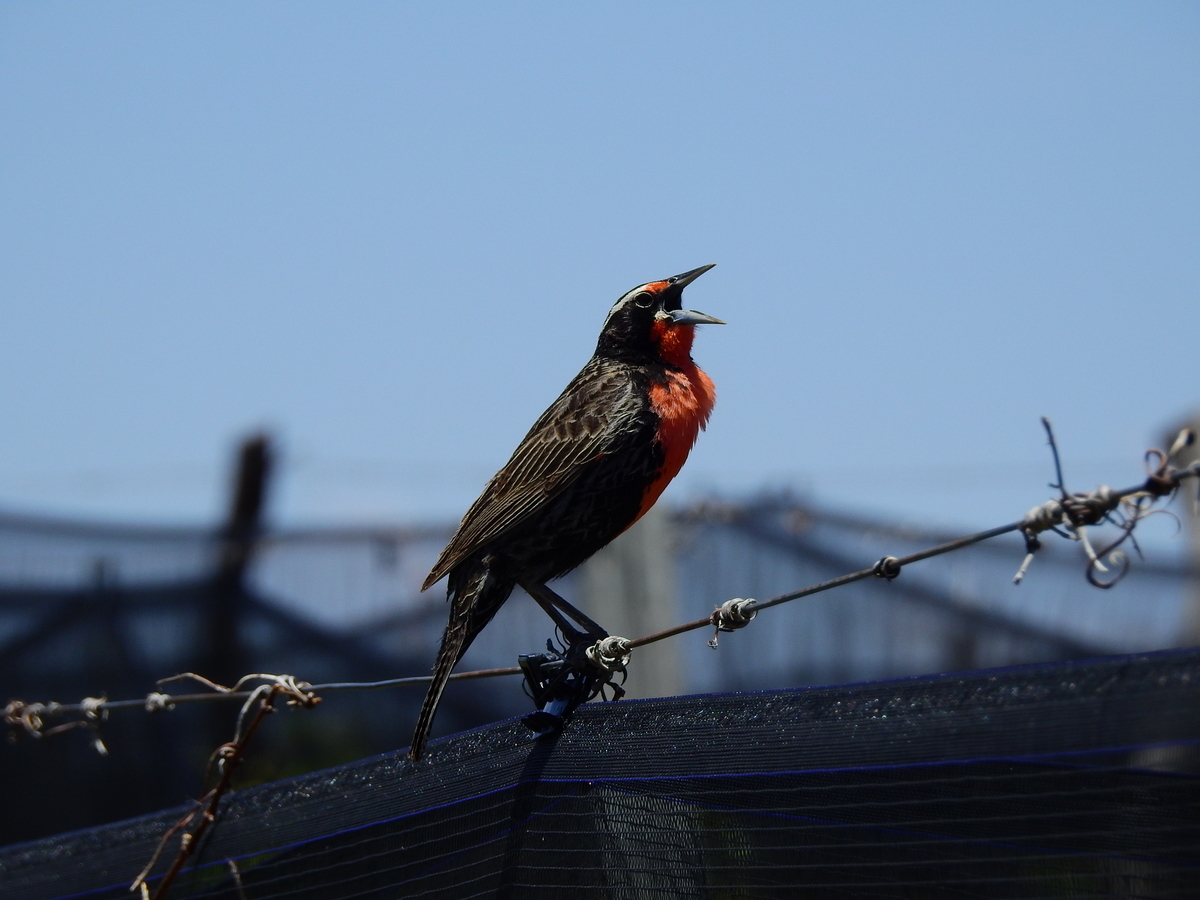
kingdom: Animalia
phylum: Chordata
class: Aves
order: Passeriformes
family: Icteridae
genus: Sturnella
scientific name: Sturnella loyca
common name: Long-tailed meadowlark
